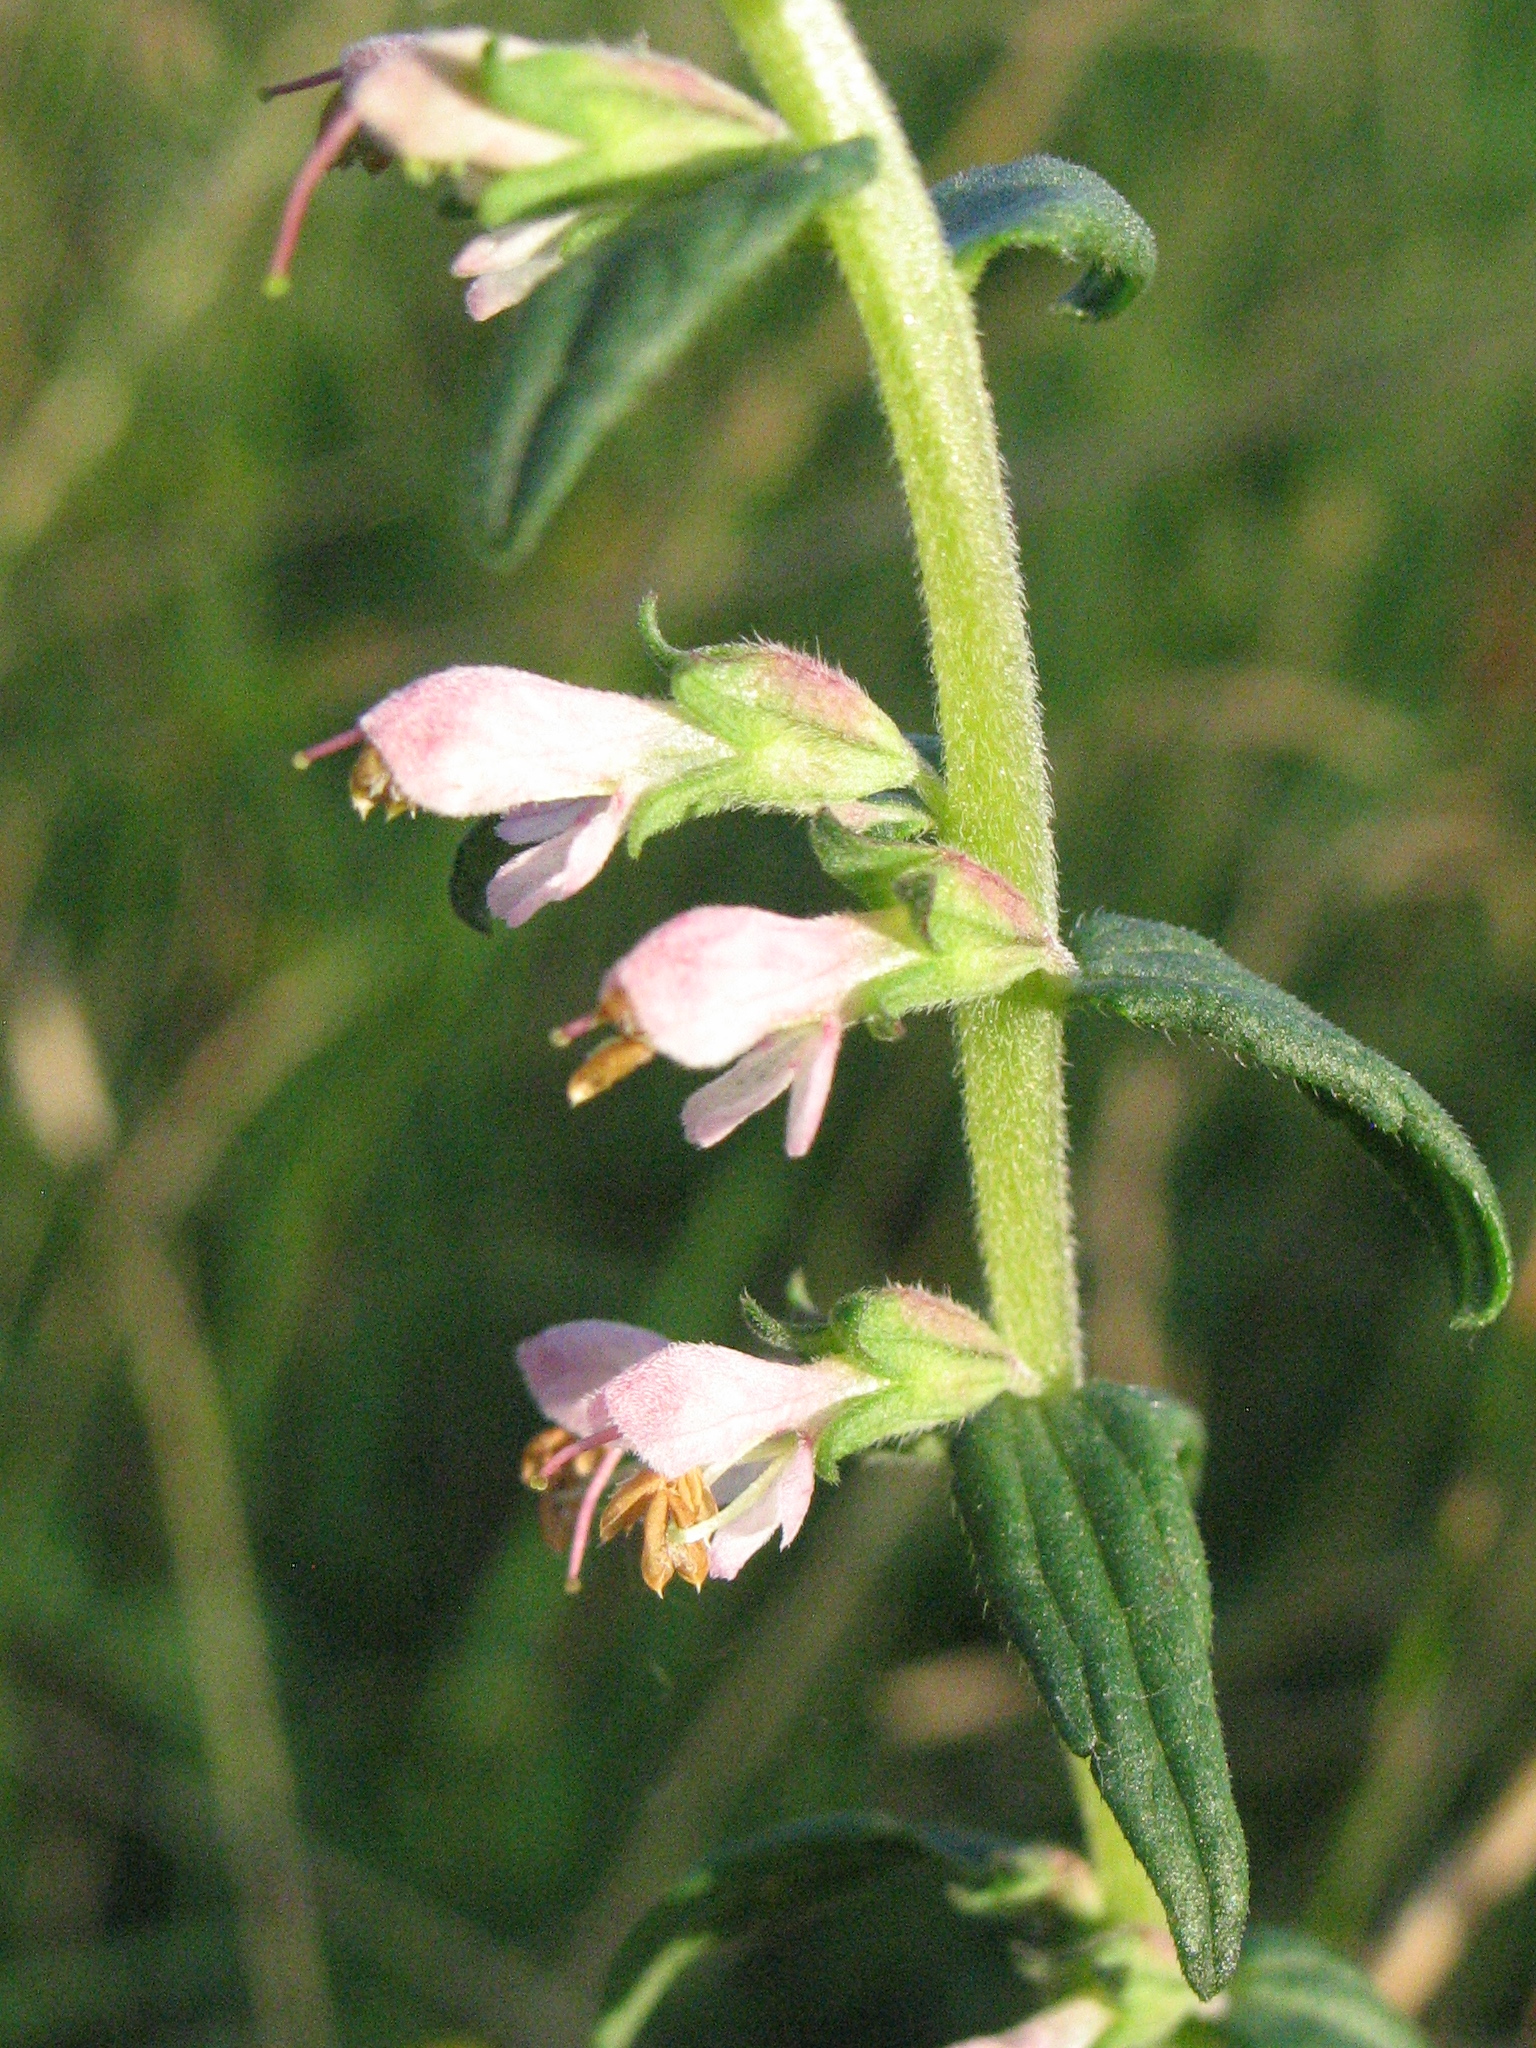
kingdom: Plantae
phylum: Tracheophyta
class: Magnoliopsida
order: Lamiales
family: Orobanchaceae
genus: Odontites
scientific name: Odontites vernus
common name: Red bartsia
